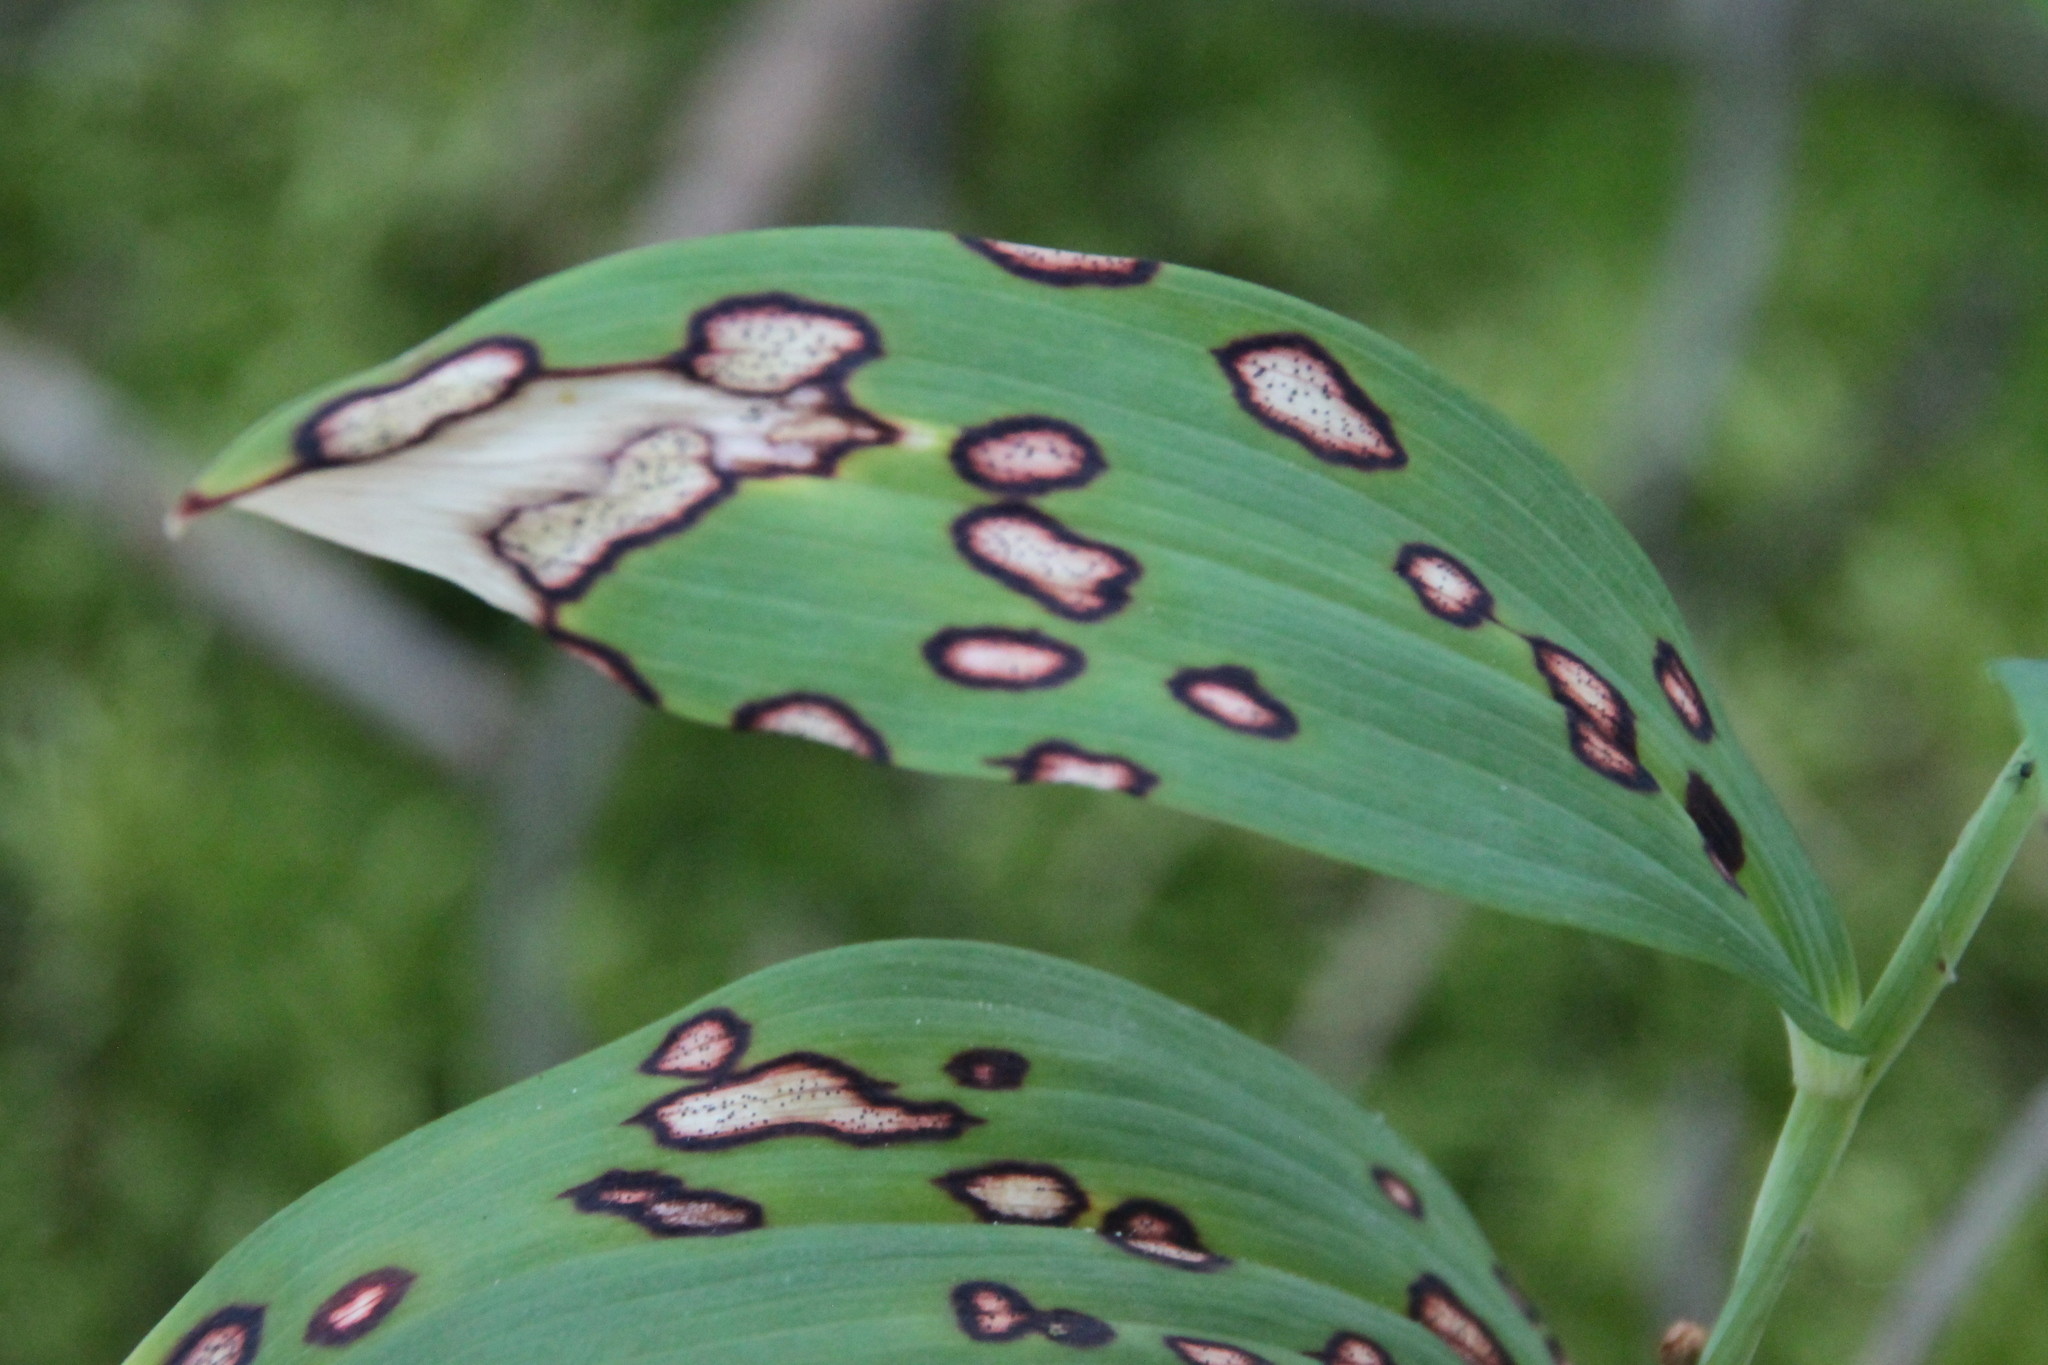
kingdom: Plantae
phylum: Tracheophyta
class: Liliopsida
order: Asparagales
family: Asparagaceae
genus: Polygonatum
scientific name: Polygonatum odoratum
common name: Angular solomon's-seal
